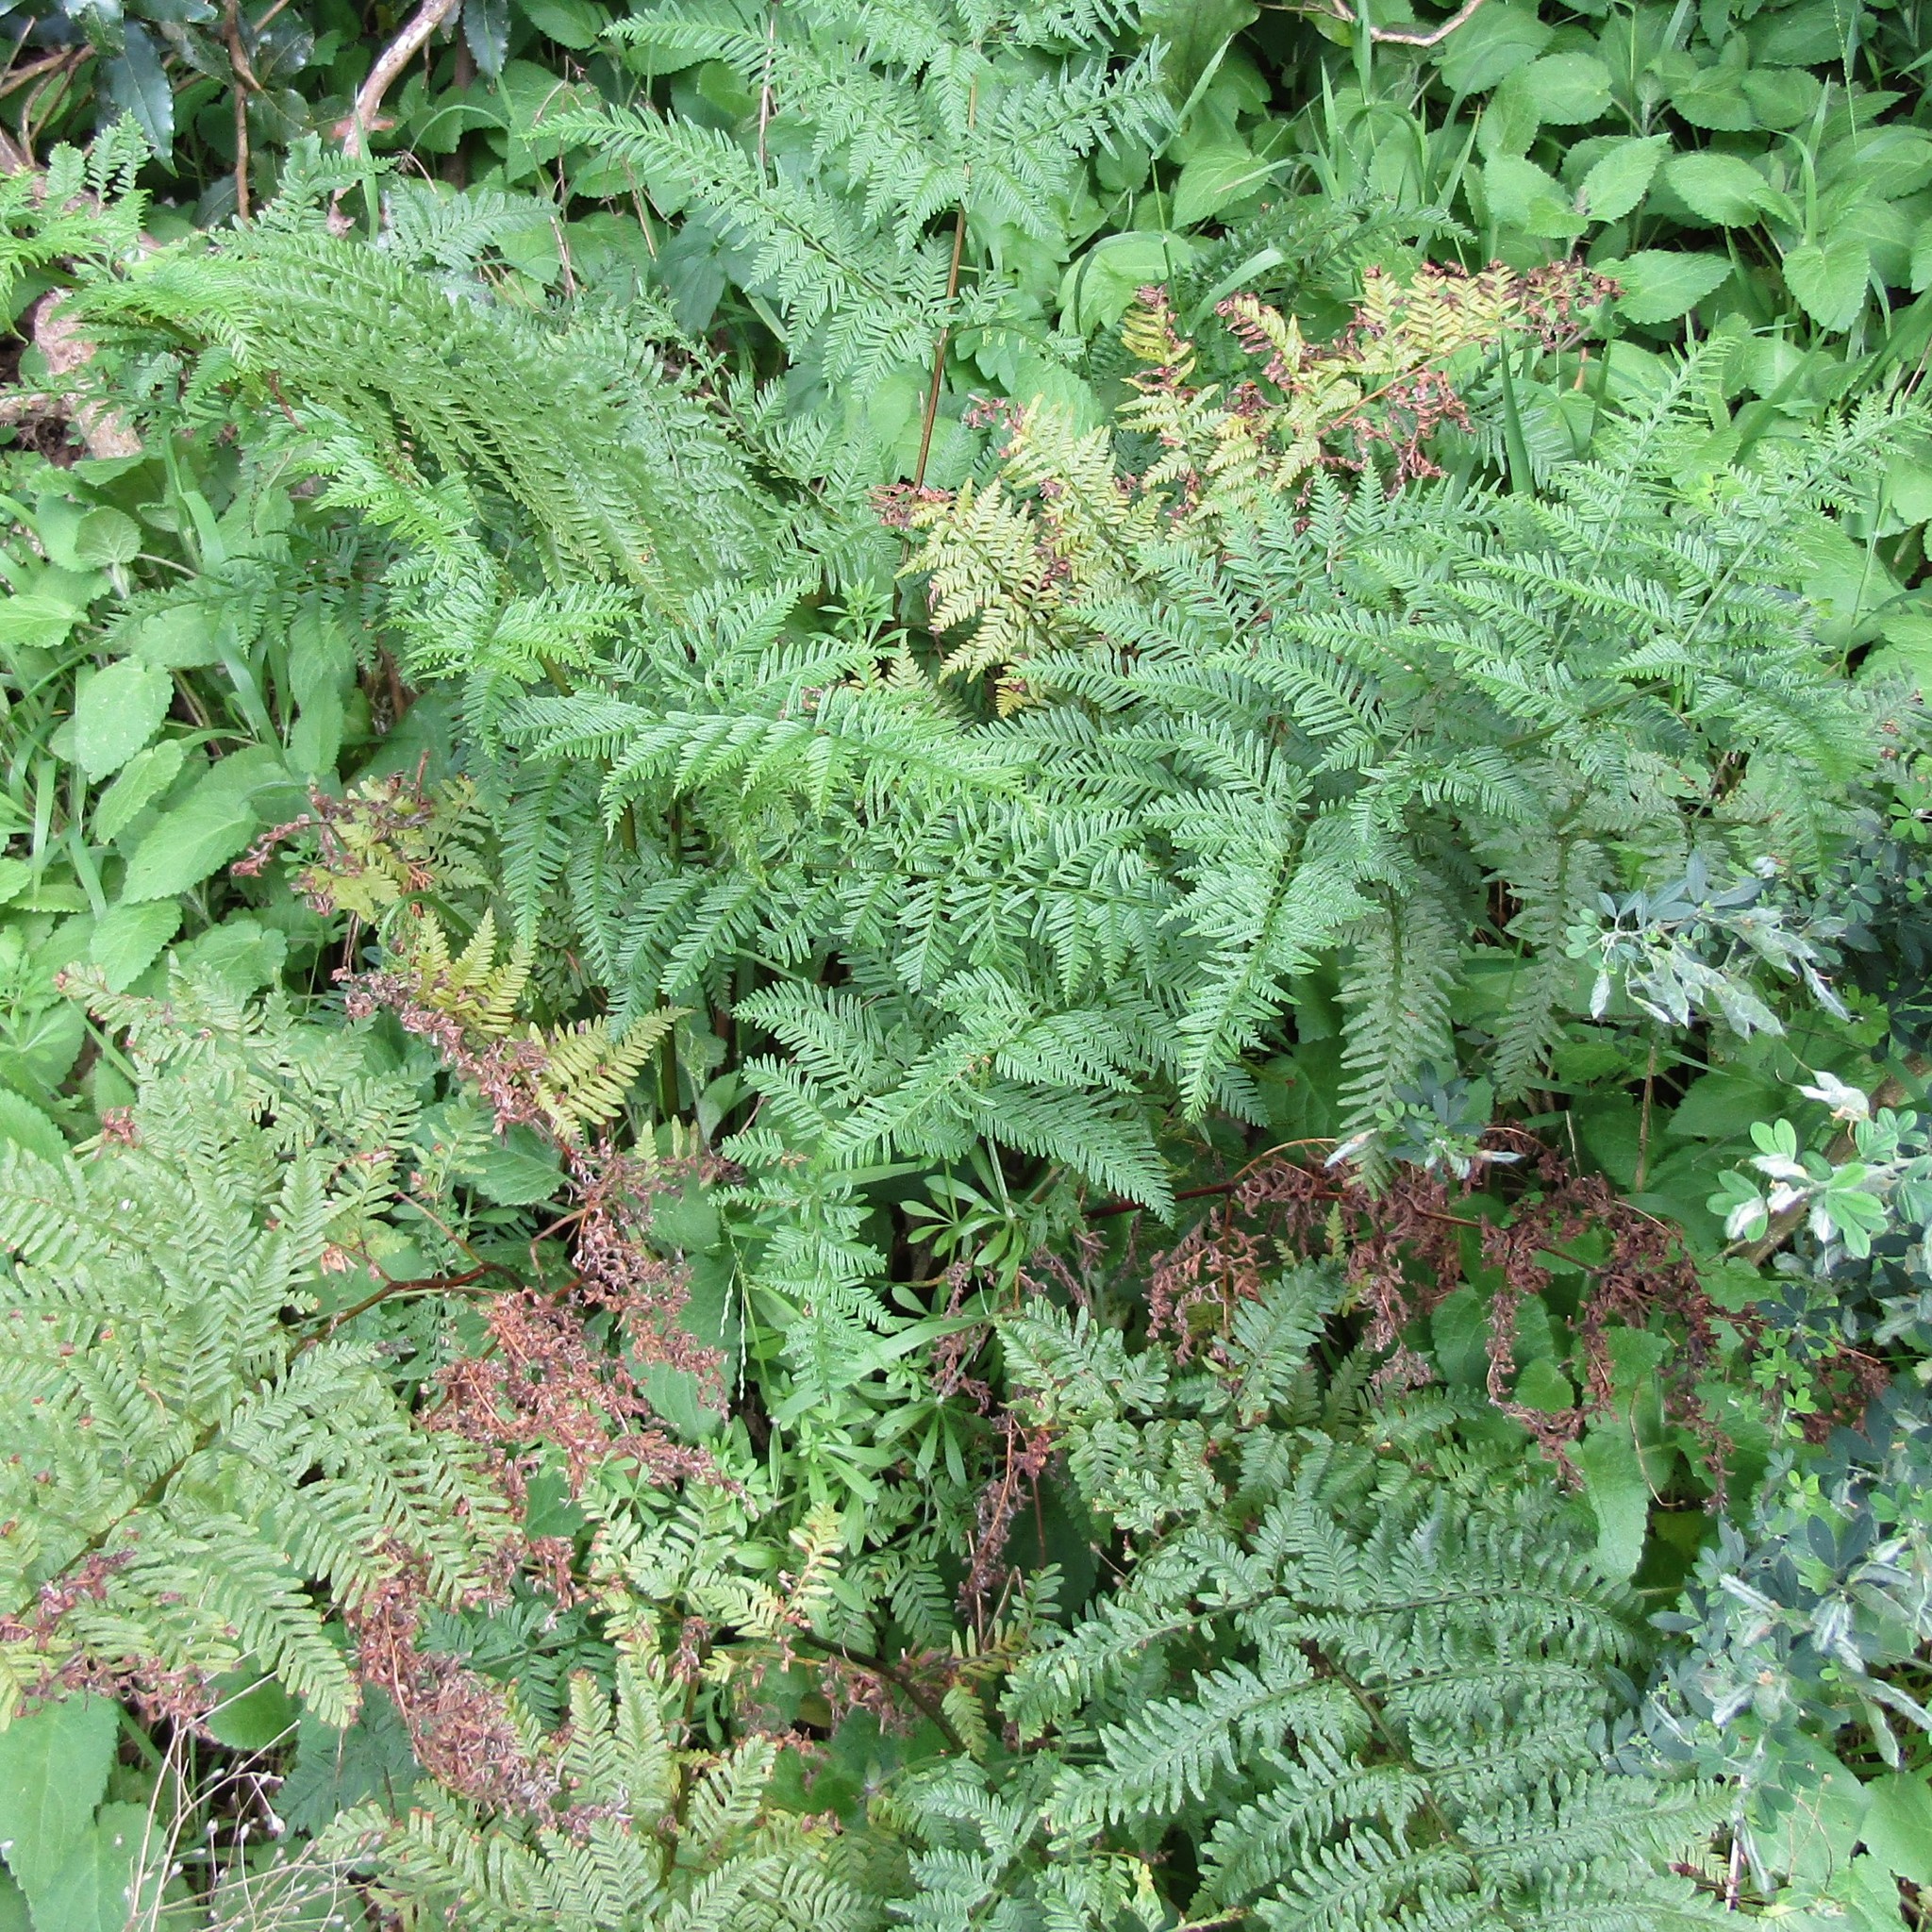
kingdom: Plantae
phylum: Tracheophyta
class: Polypodiopsida
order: Polypodiales
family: Pteridaceae
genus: Pteris
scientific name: Pteris tremula
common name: Australian brake
